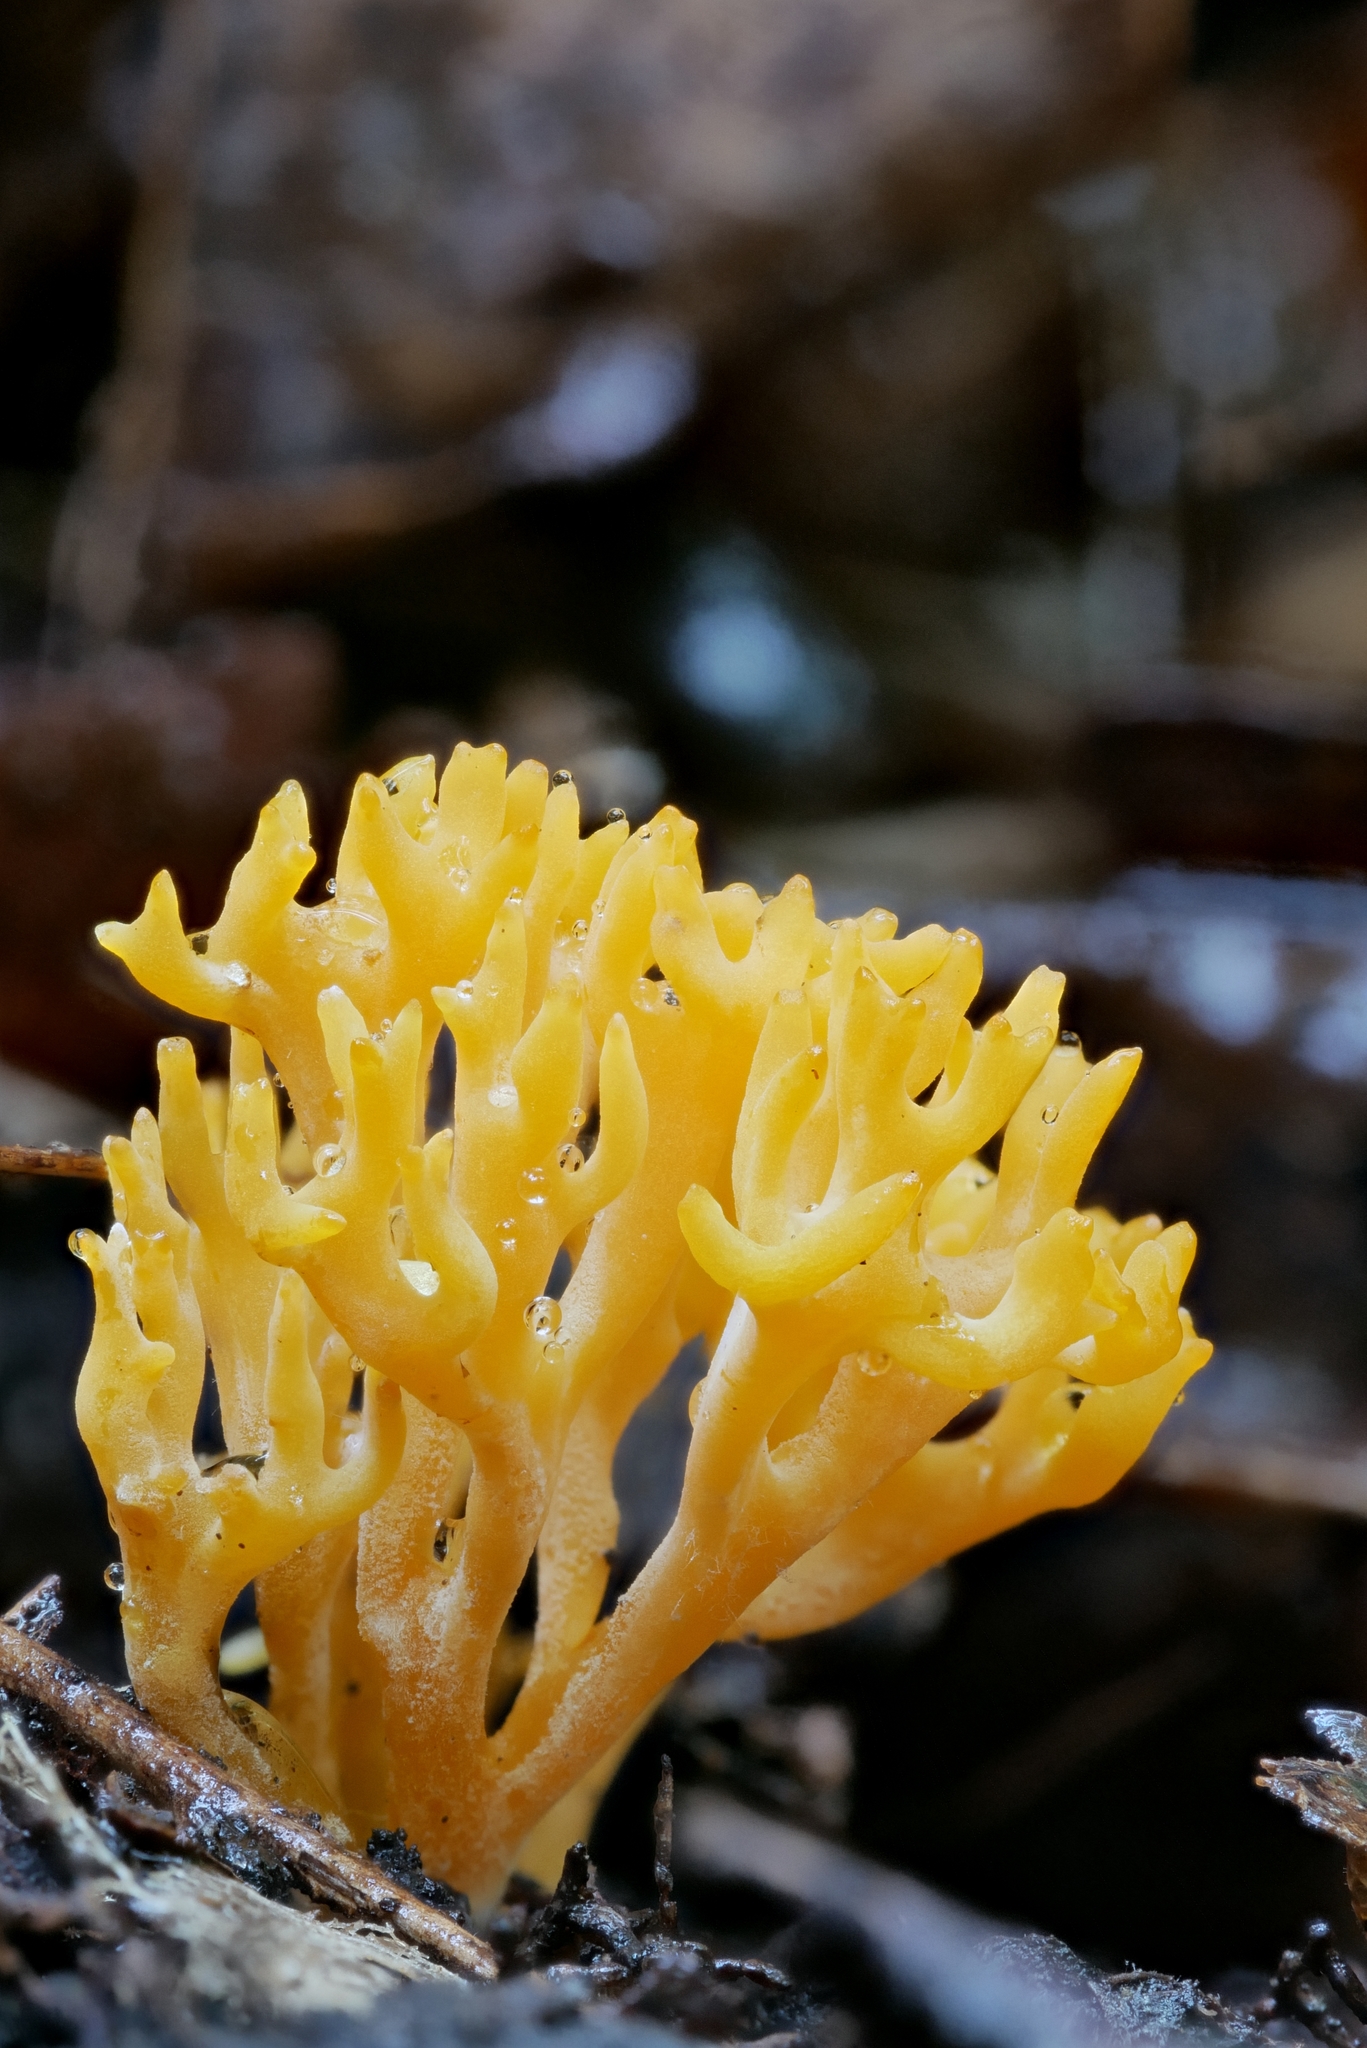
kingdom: Fungi
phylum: Basidiomycota
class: Agaricomycetes
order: Agaricales
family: Clavariaceae
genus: Ramariopsis
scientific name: Ramariopsis crocea
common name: Orange coral
